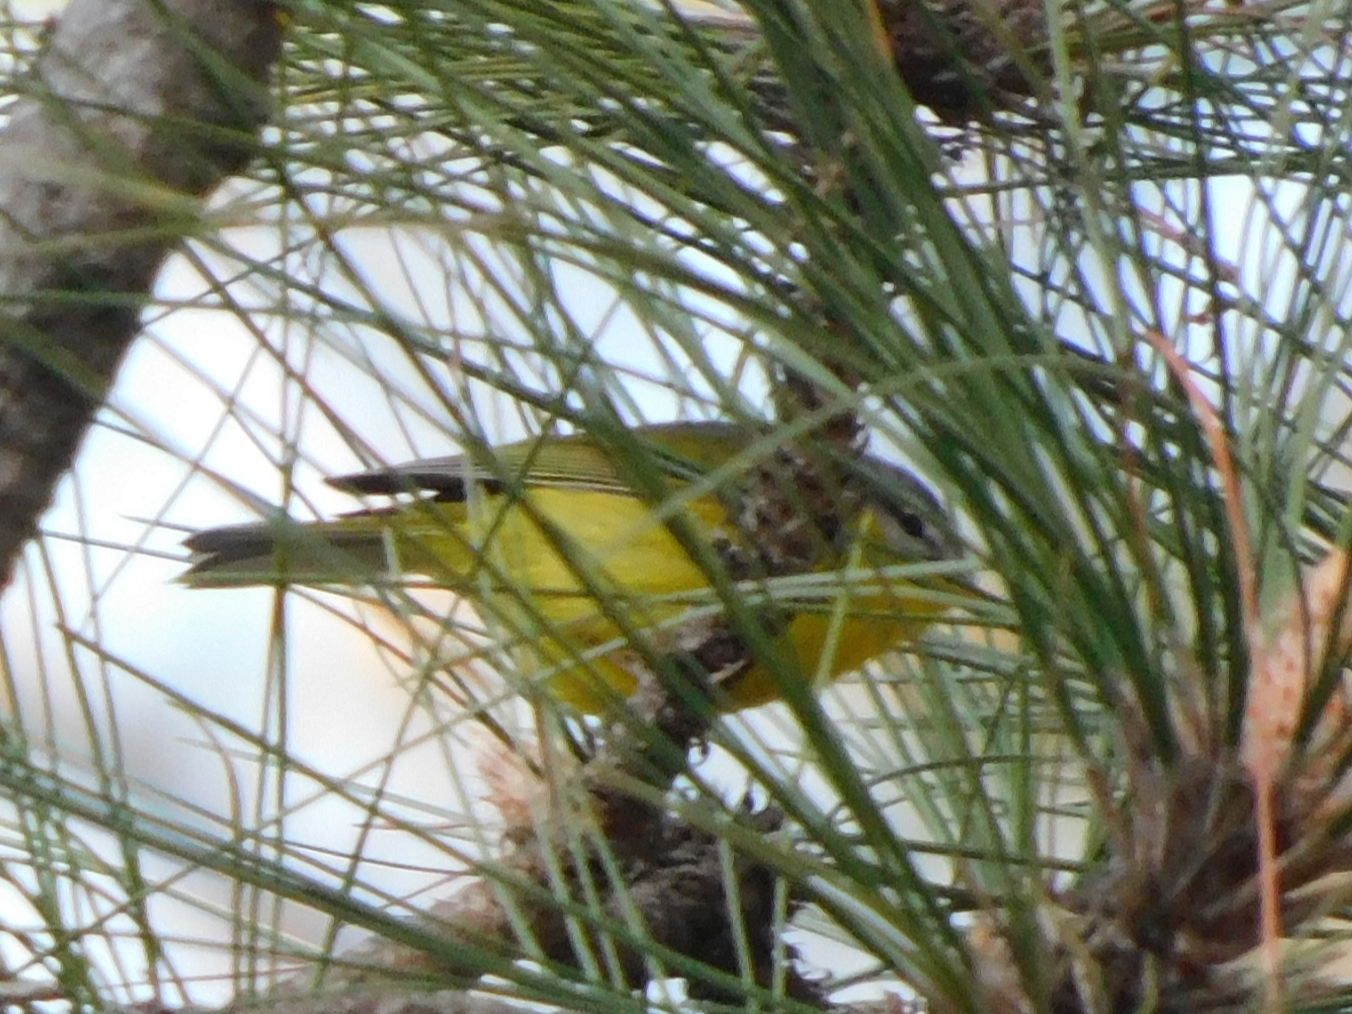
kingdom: Animalia
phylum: Chordata
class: Aves
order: Passeriformes
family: Phylloscopidae
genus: Phylloscopus
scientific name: Phylloscopus xanthoschistos
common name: Grey-hooded warbler
